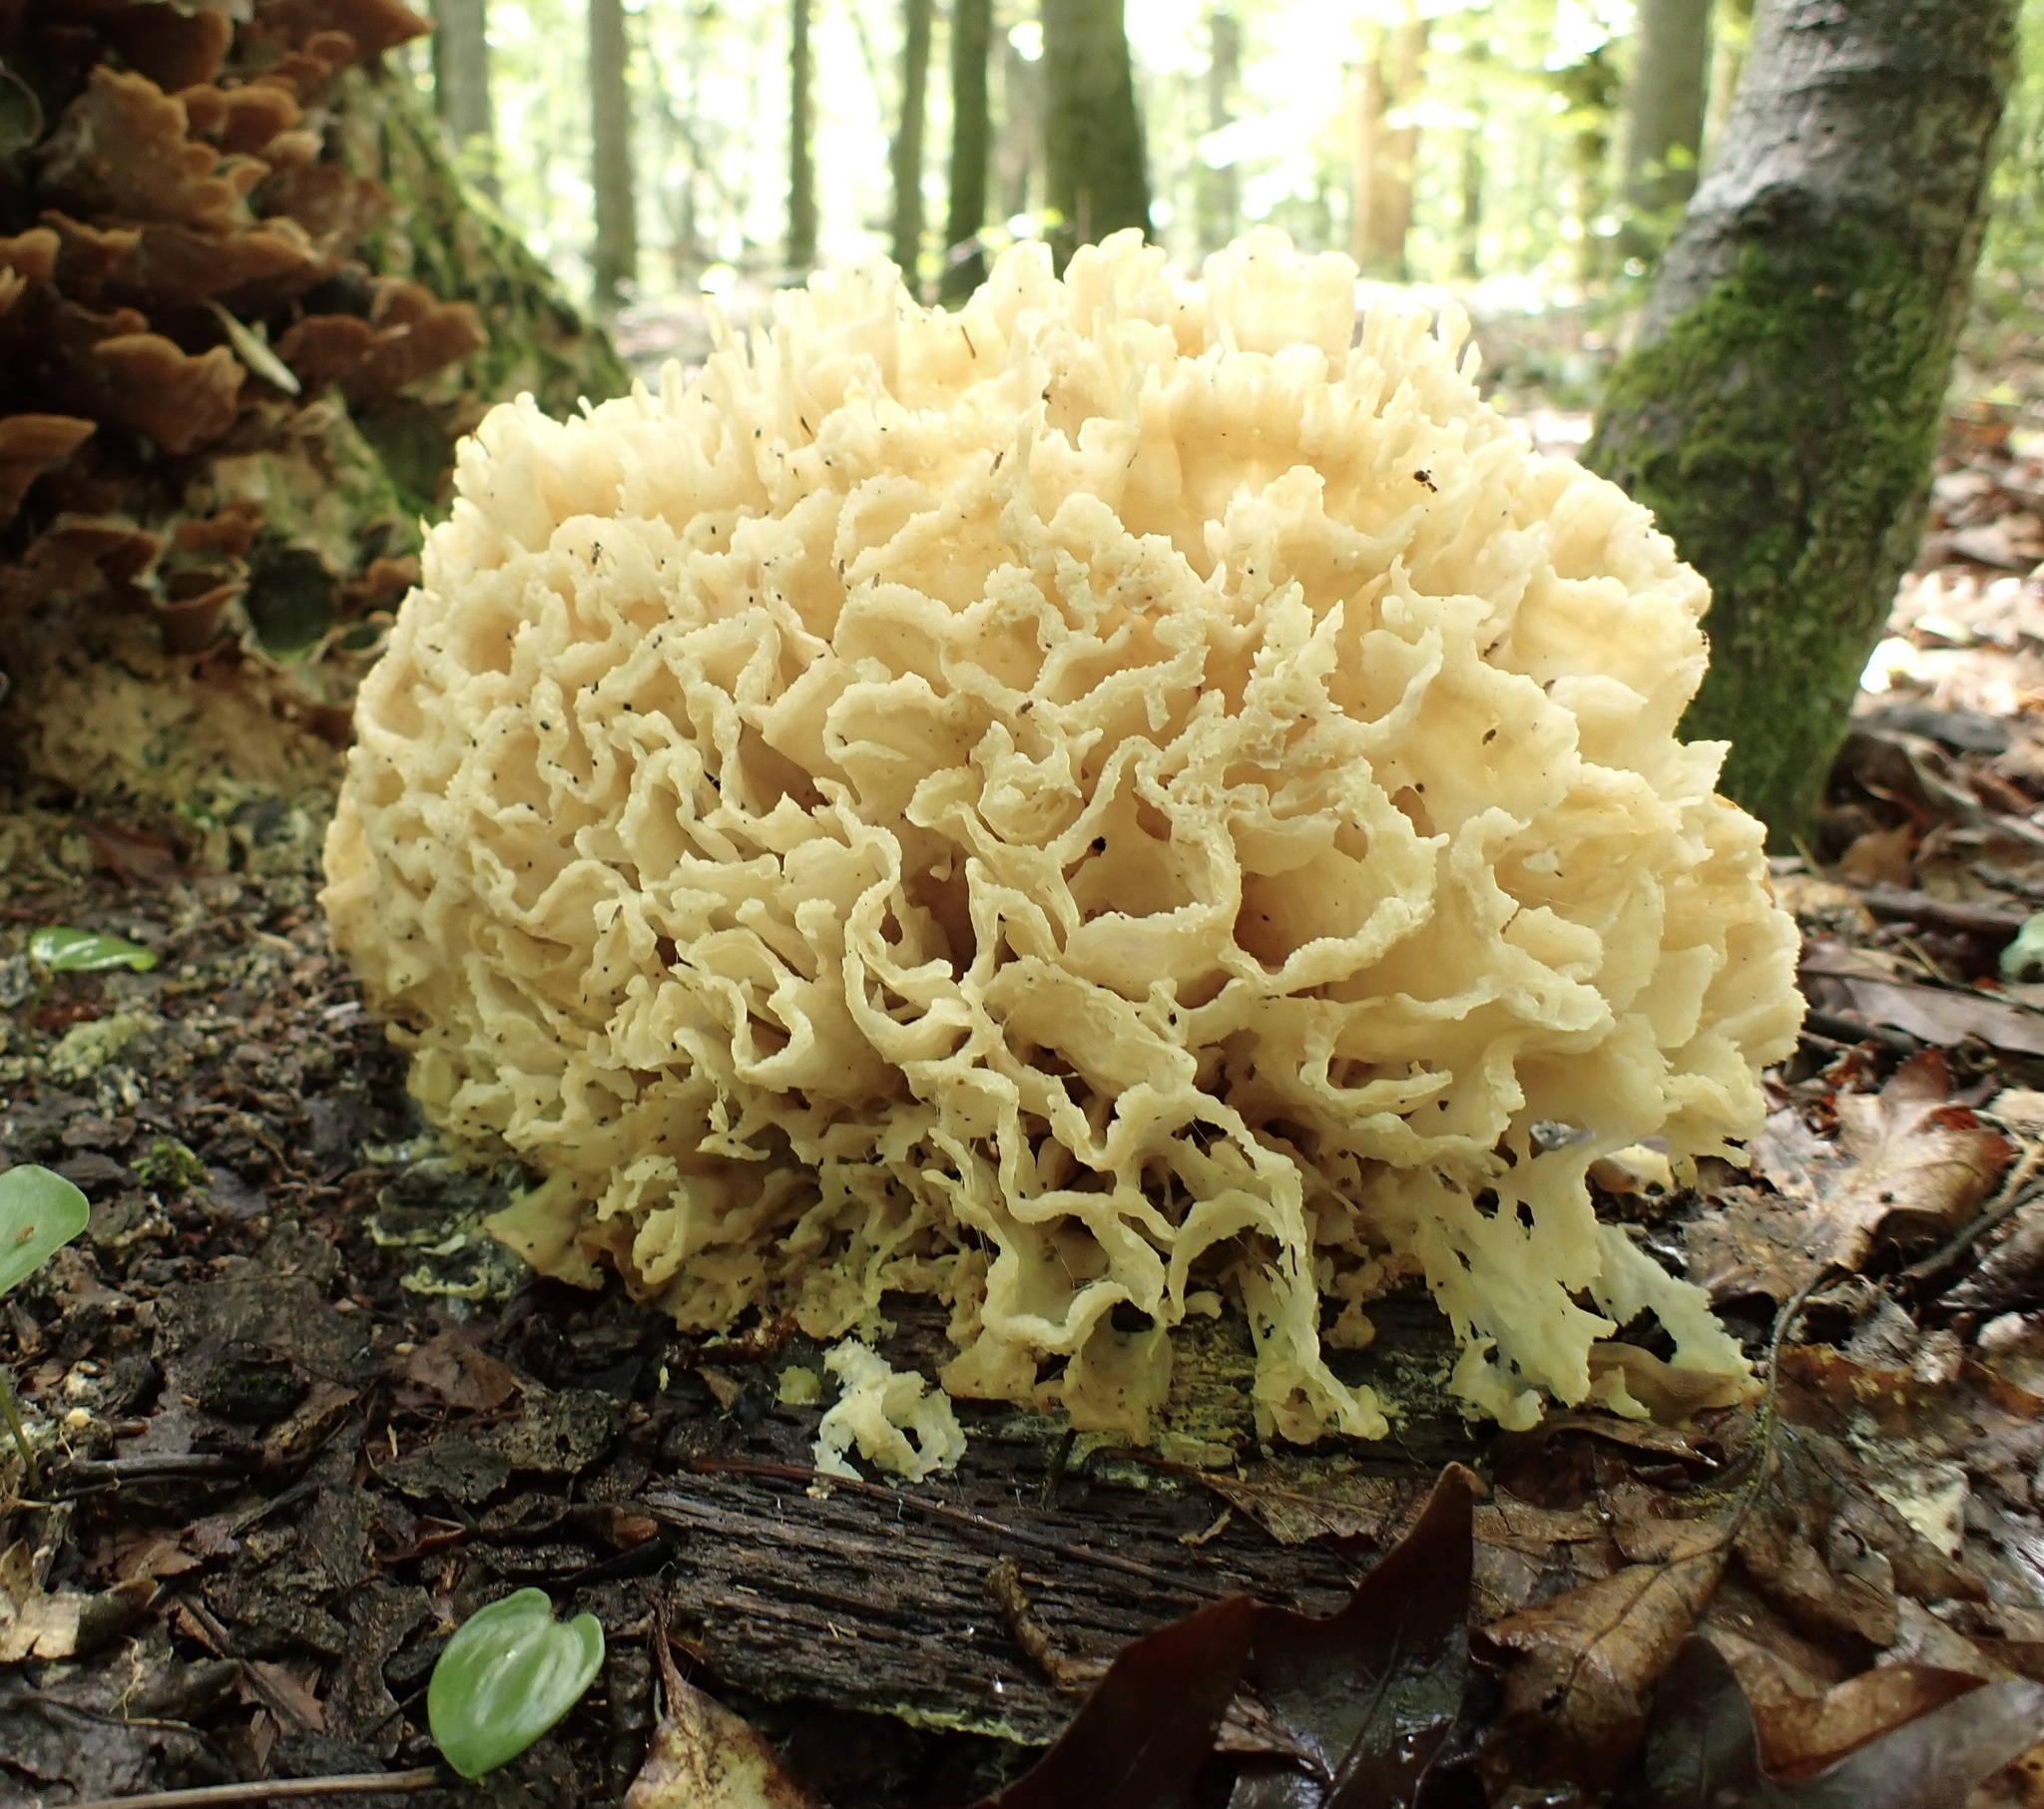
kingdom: Fungi
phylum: Basidiomycota
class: Agaricomycetes
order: Polyporales
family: Sparassidaceae
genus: Sparassis
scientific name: Sparassis spathulata
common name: Eastern cauliflower mushroom
